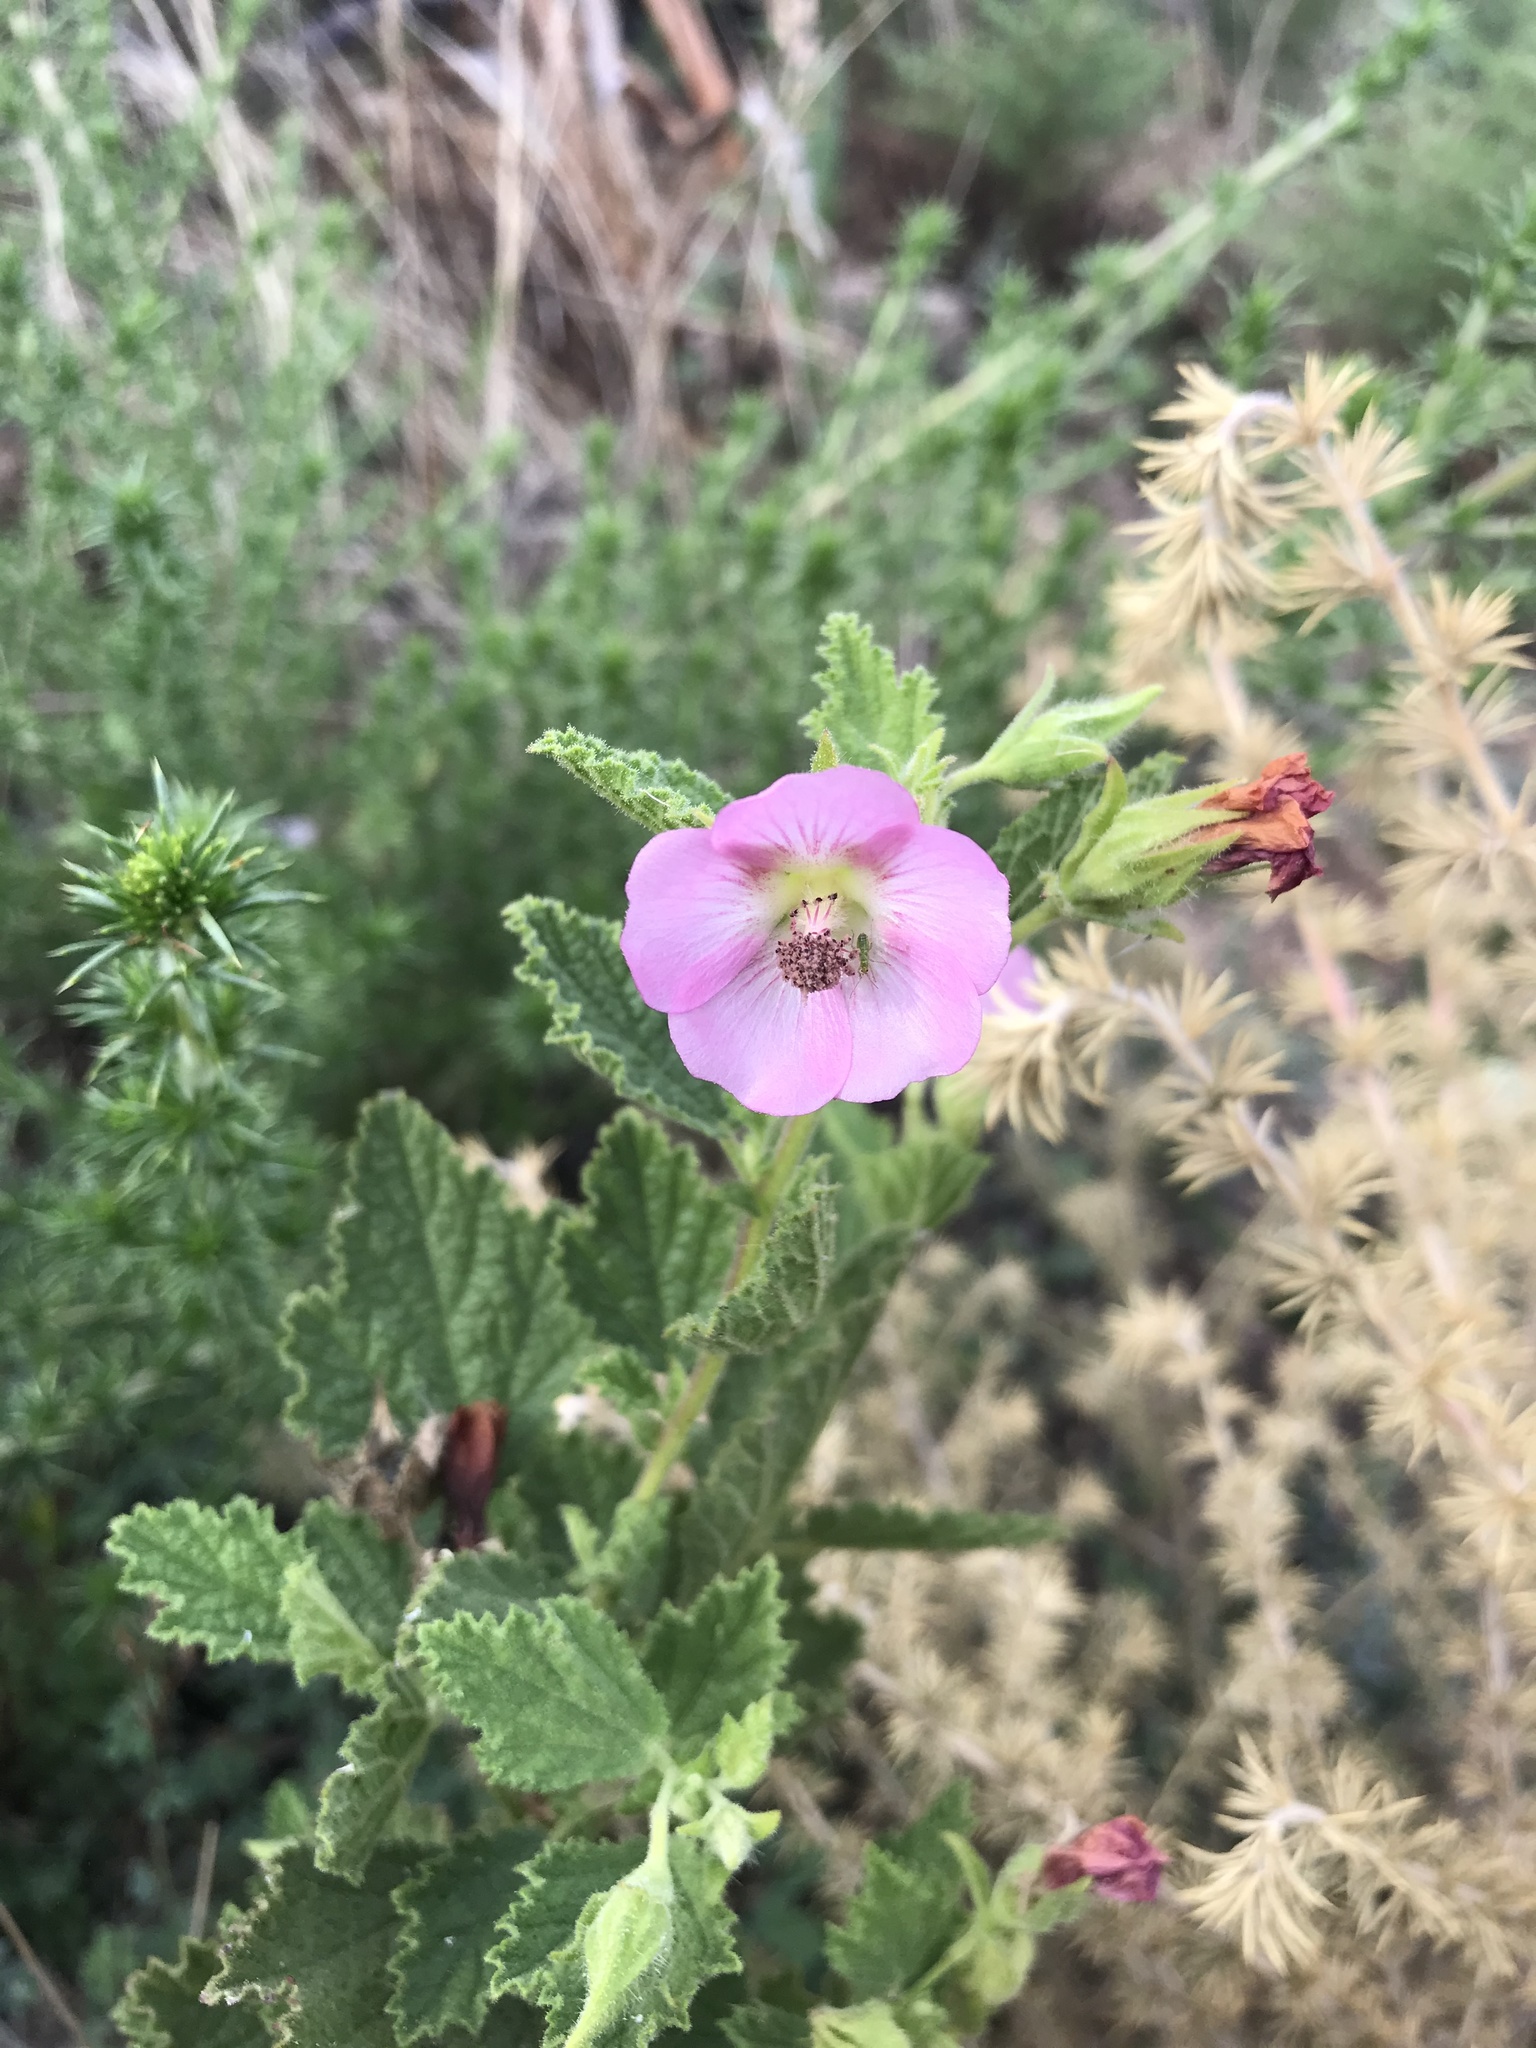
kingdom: Plantae
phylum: Tracheophyta
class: Magnoliopsida
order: Malvales
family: Malvaceae
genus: Anisodontea
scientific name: Anisodontea scabrosa
